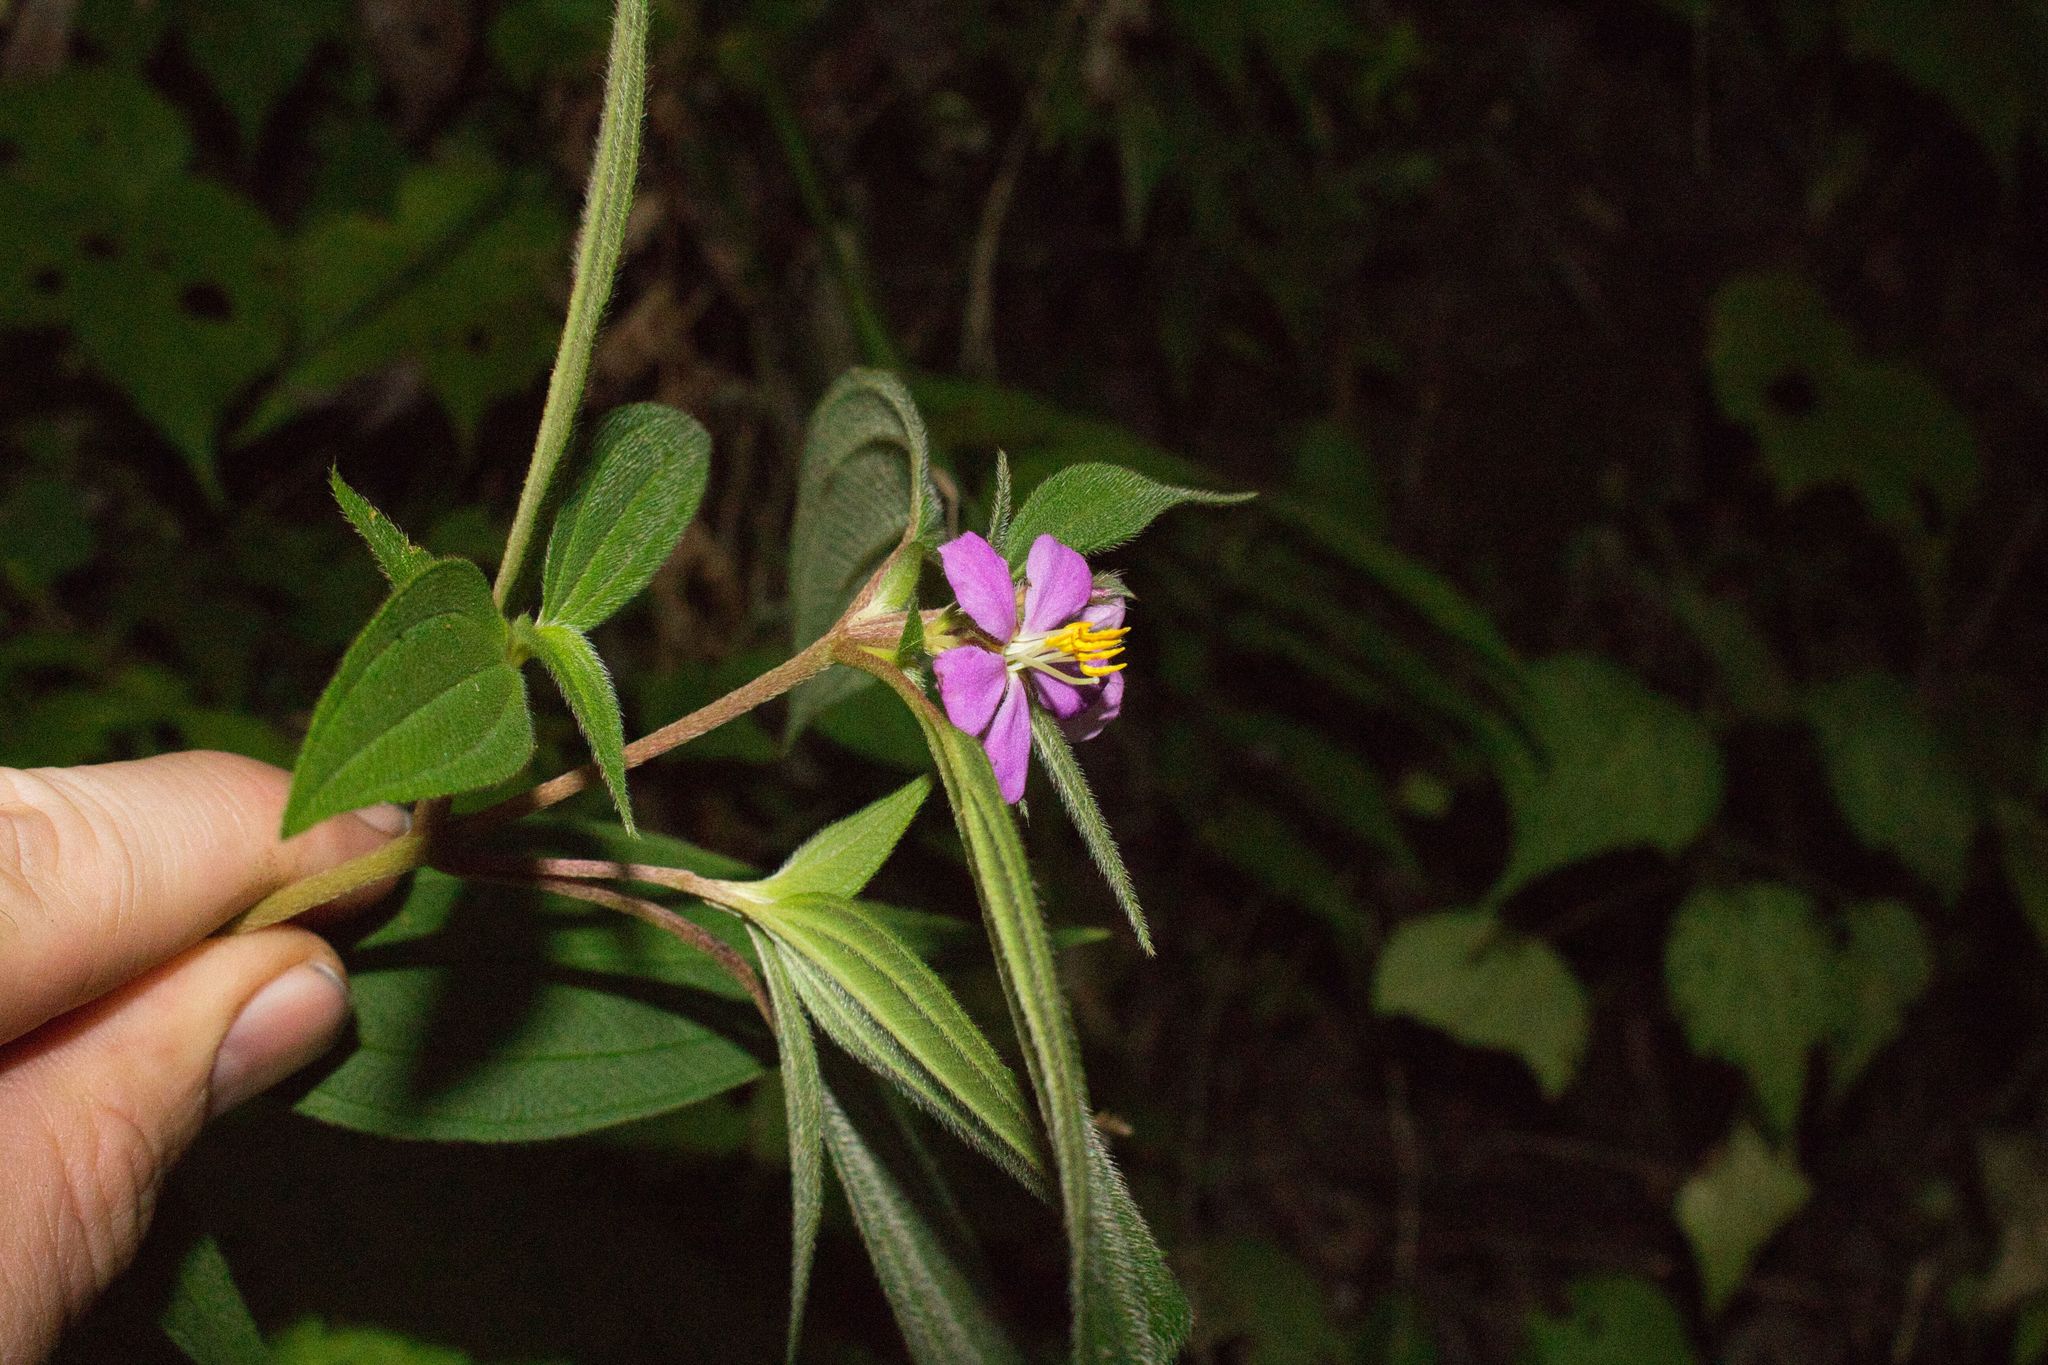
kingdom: Plantae
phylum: Tracheophyta
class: Magnoliopsida
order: Myrtales
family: Melastomataceae
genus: Chaetogastra
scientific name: Chaetogastra naudiniana
